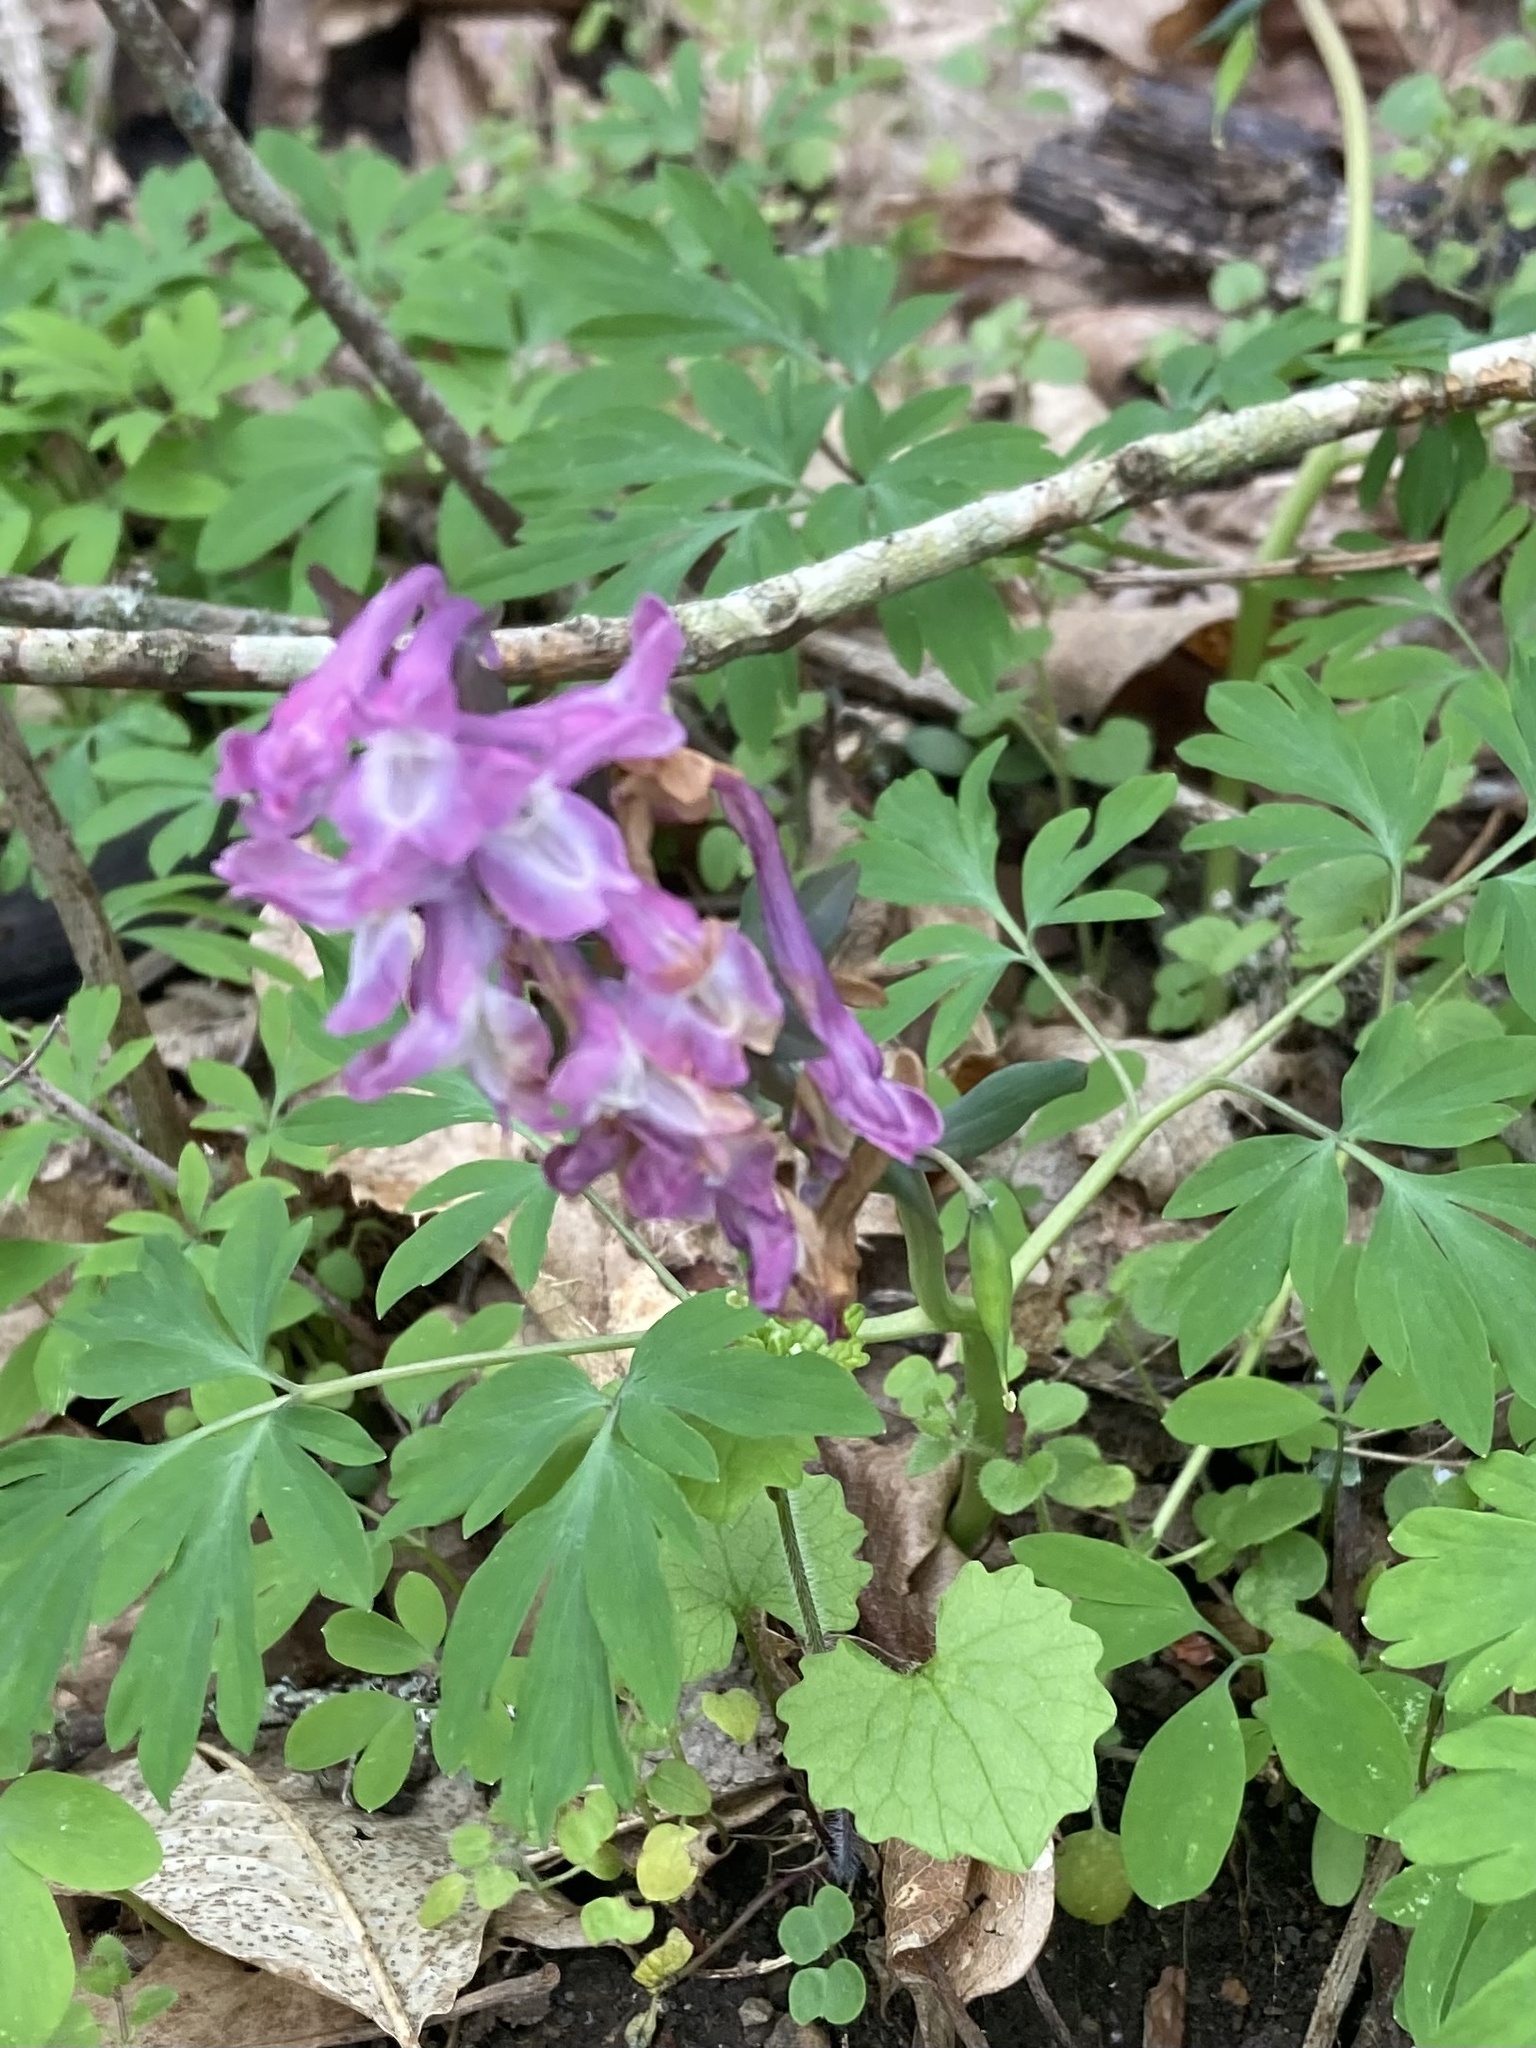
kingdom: Plantae
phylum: Tracheophyta
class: Magnoliopsida
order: Ranunculales
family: Papaveraceae
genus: Corydalis
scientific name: Corydalis cava
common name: Hollowroot
